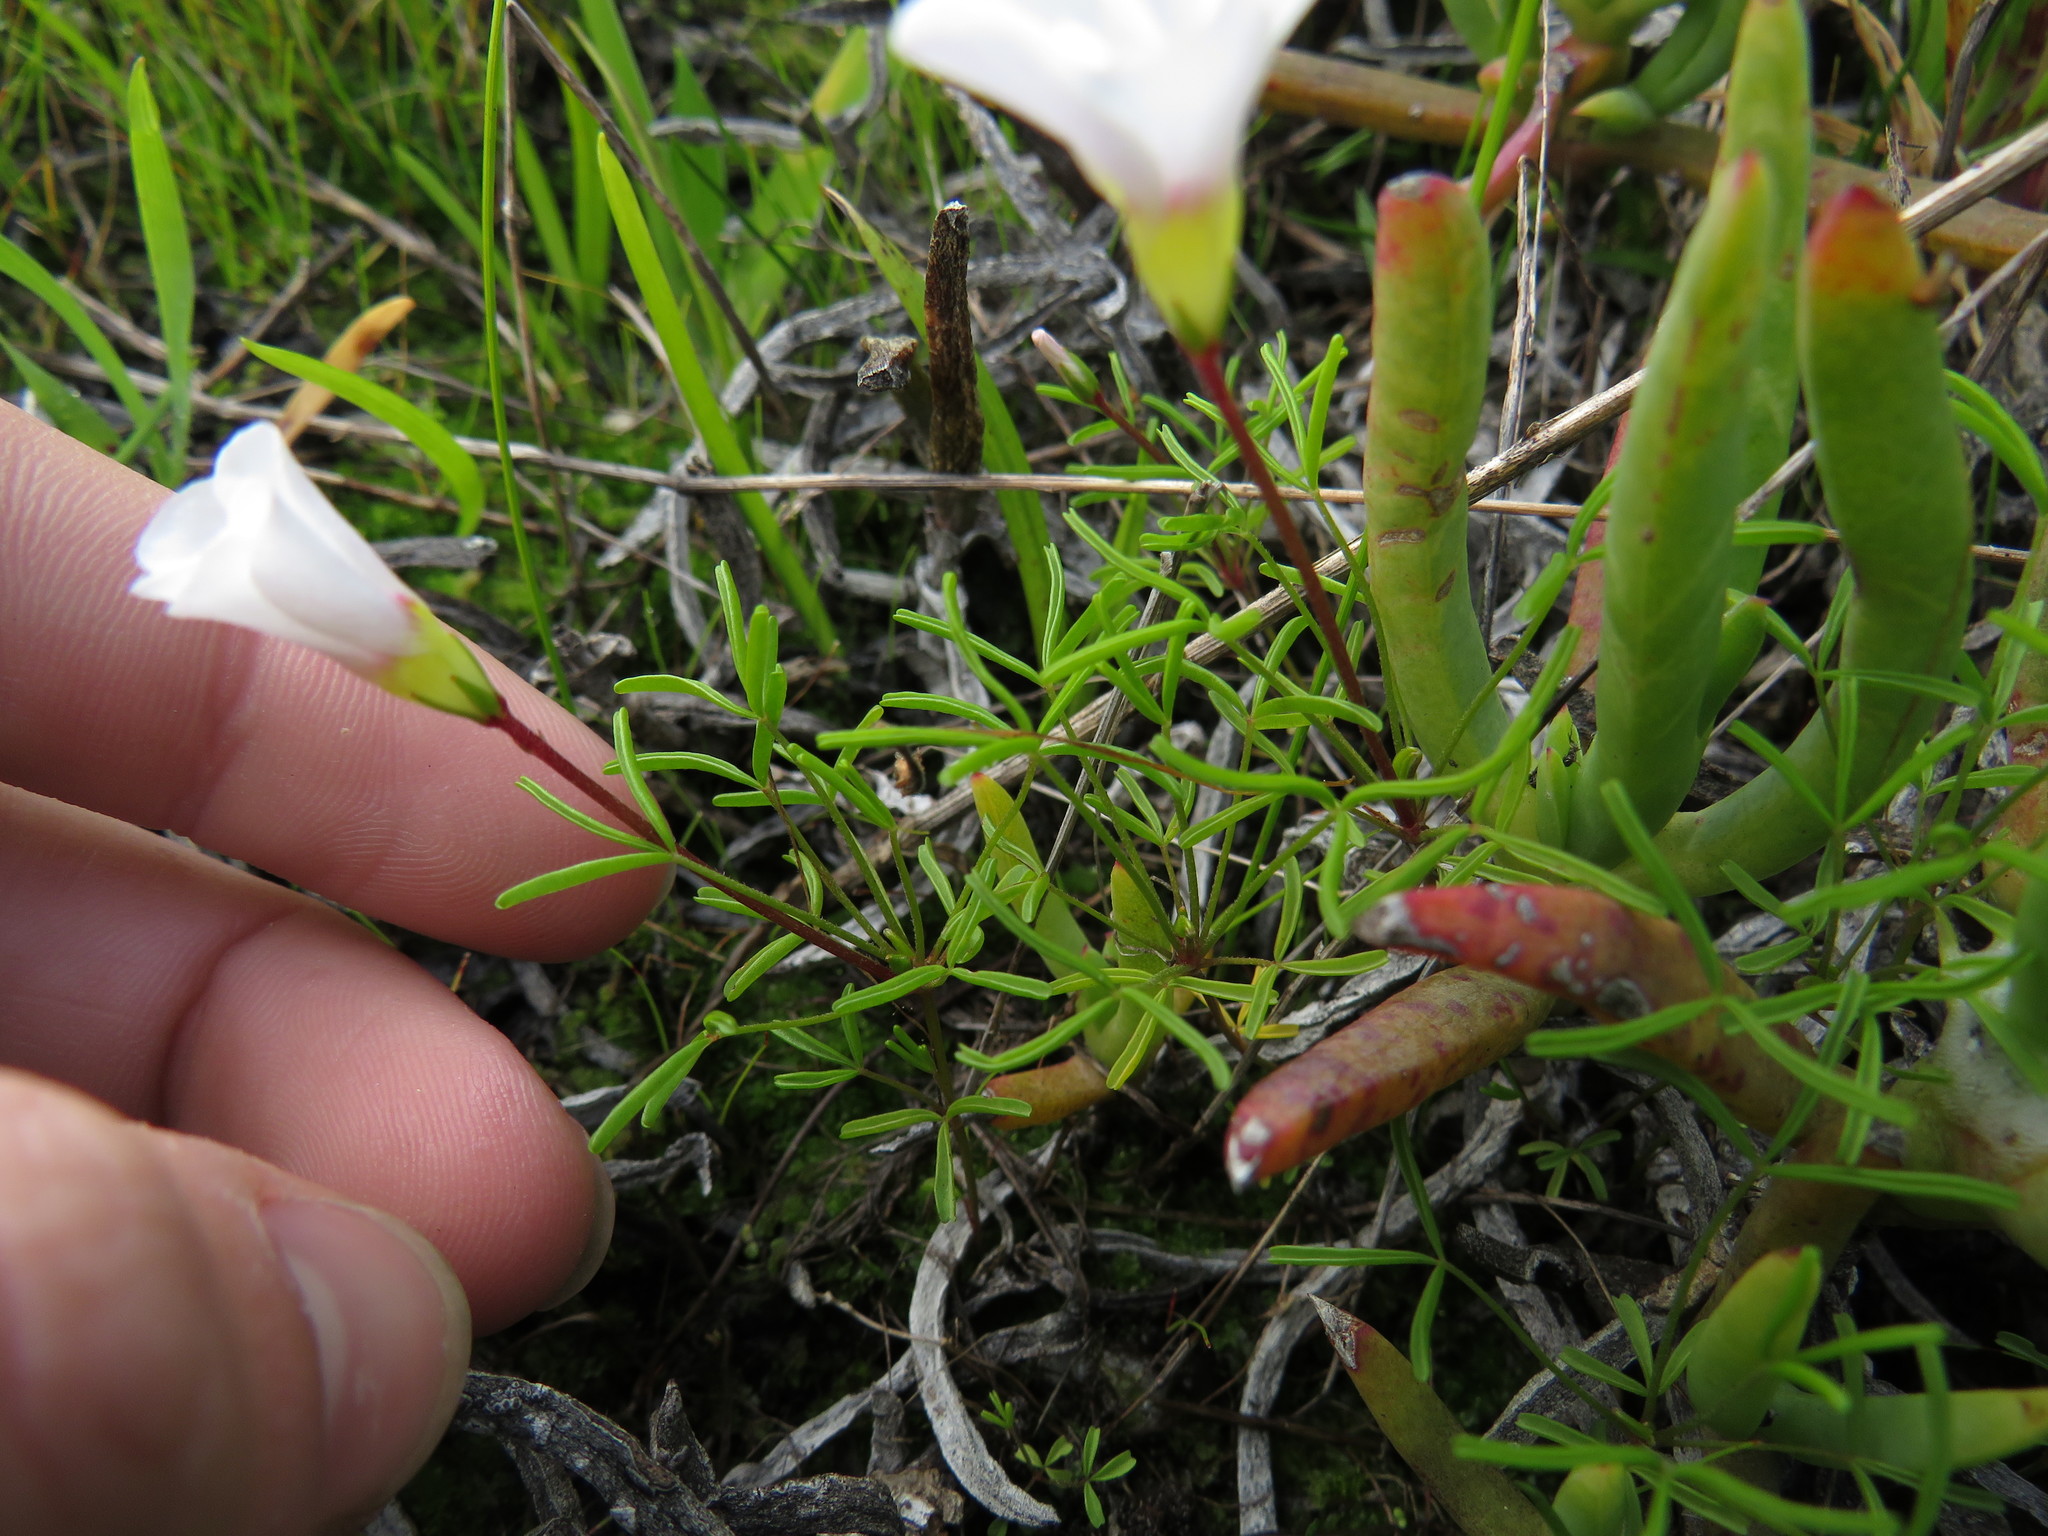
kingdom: Plantae
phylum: Tracheophyta
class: Magnoliopsida
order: Oxalidales
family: Oxalidaceae
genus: Oxalis
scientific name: Oxalis pusilla
